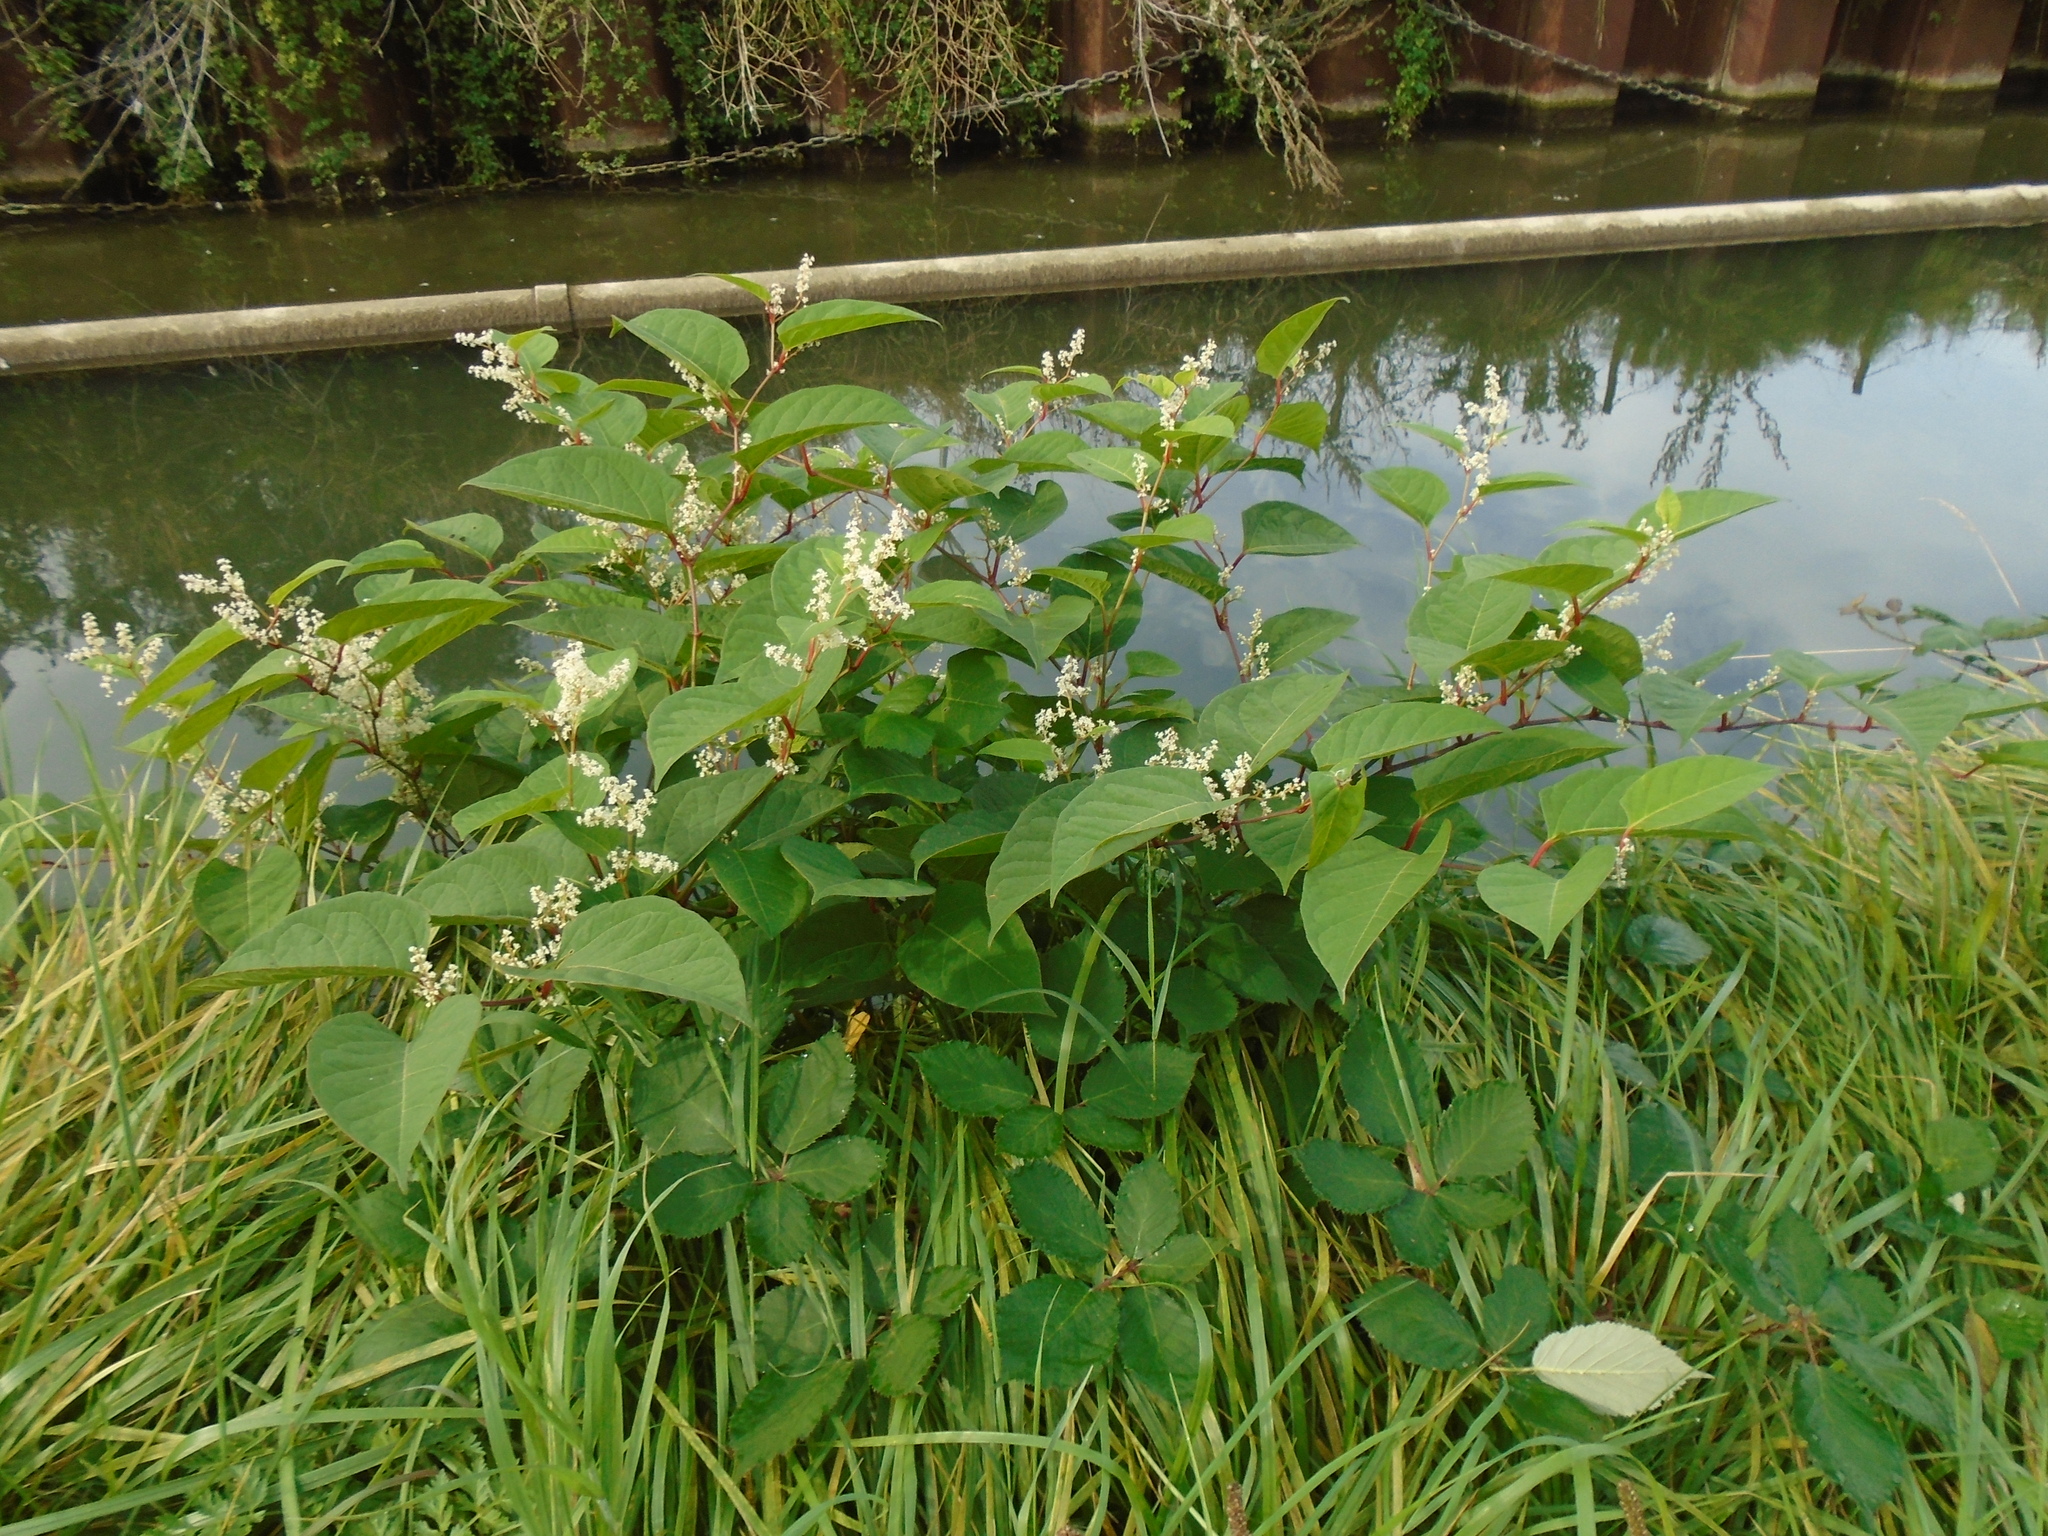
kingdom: Plantae
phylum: Tracheophyta
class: Magnoliopsida
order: Caryophyllales
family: Polygonaceae
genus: Reynoutria
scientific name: Reynoutria japonica
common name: Japanese knotweed
